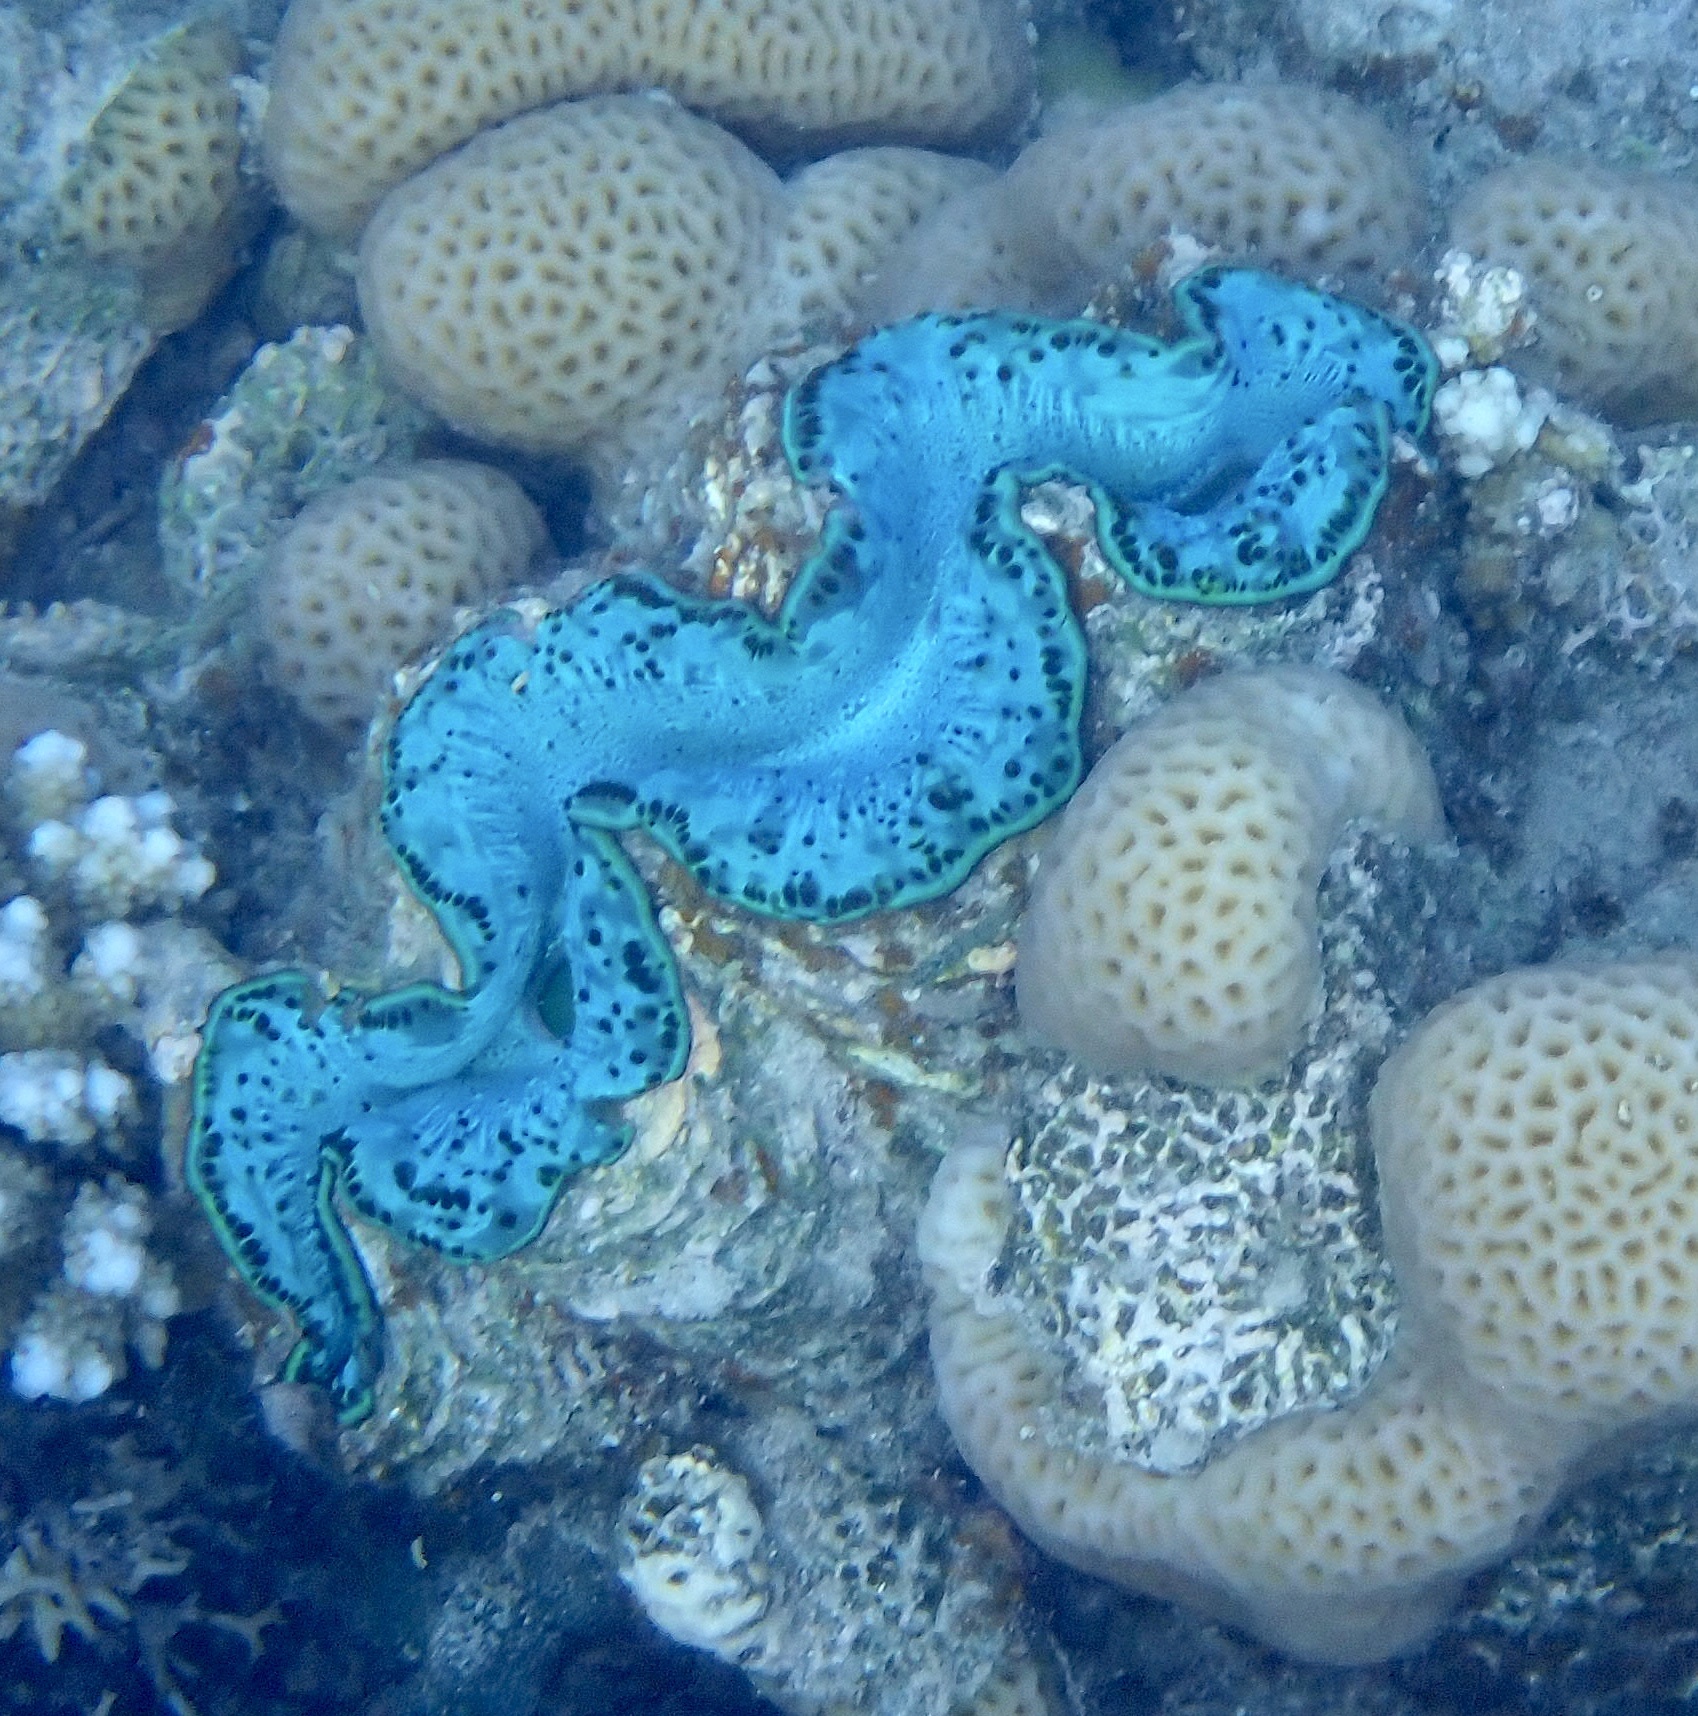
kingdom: Animalia
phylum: Mollusca
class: Bivalvia
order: Cardiida
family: Cardiidae
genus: Tridacna
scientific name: Tridacna maxima
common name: Small giant clam
